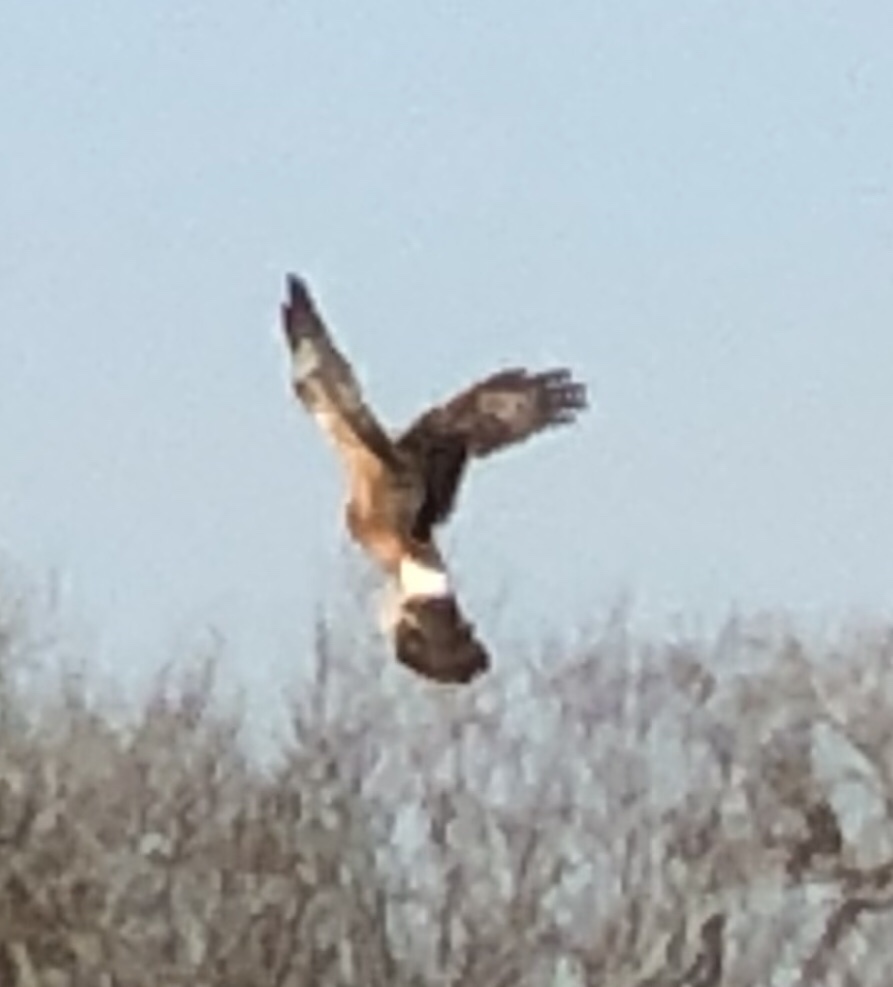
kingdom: Animalia
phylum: Chordata
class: Aves
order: Accipitriformes
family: Accipitridae
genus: Circus
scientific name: Circus cyaneus
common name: Hen harrier
